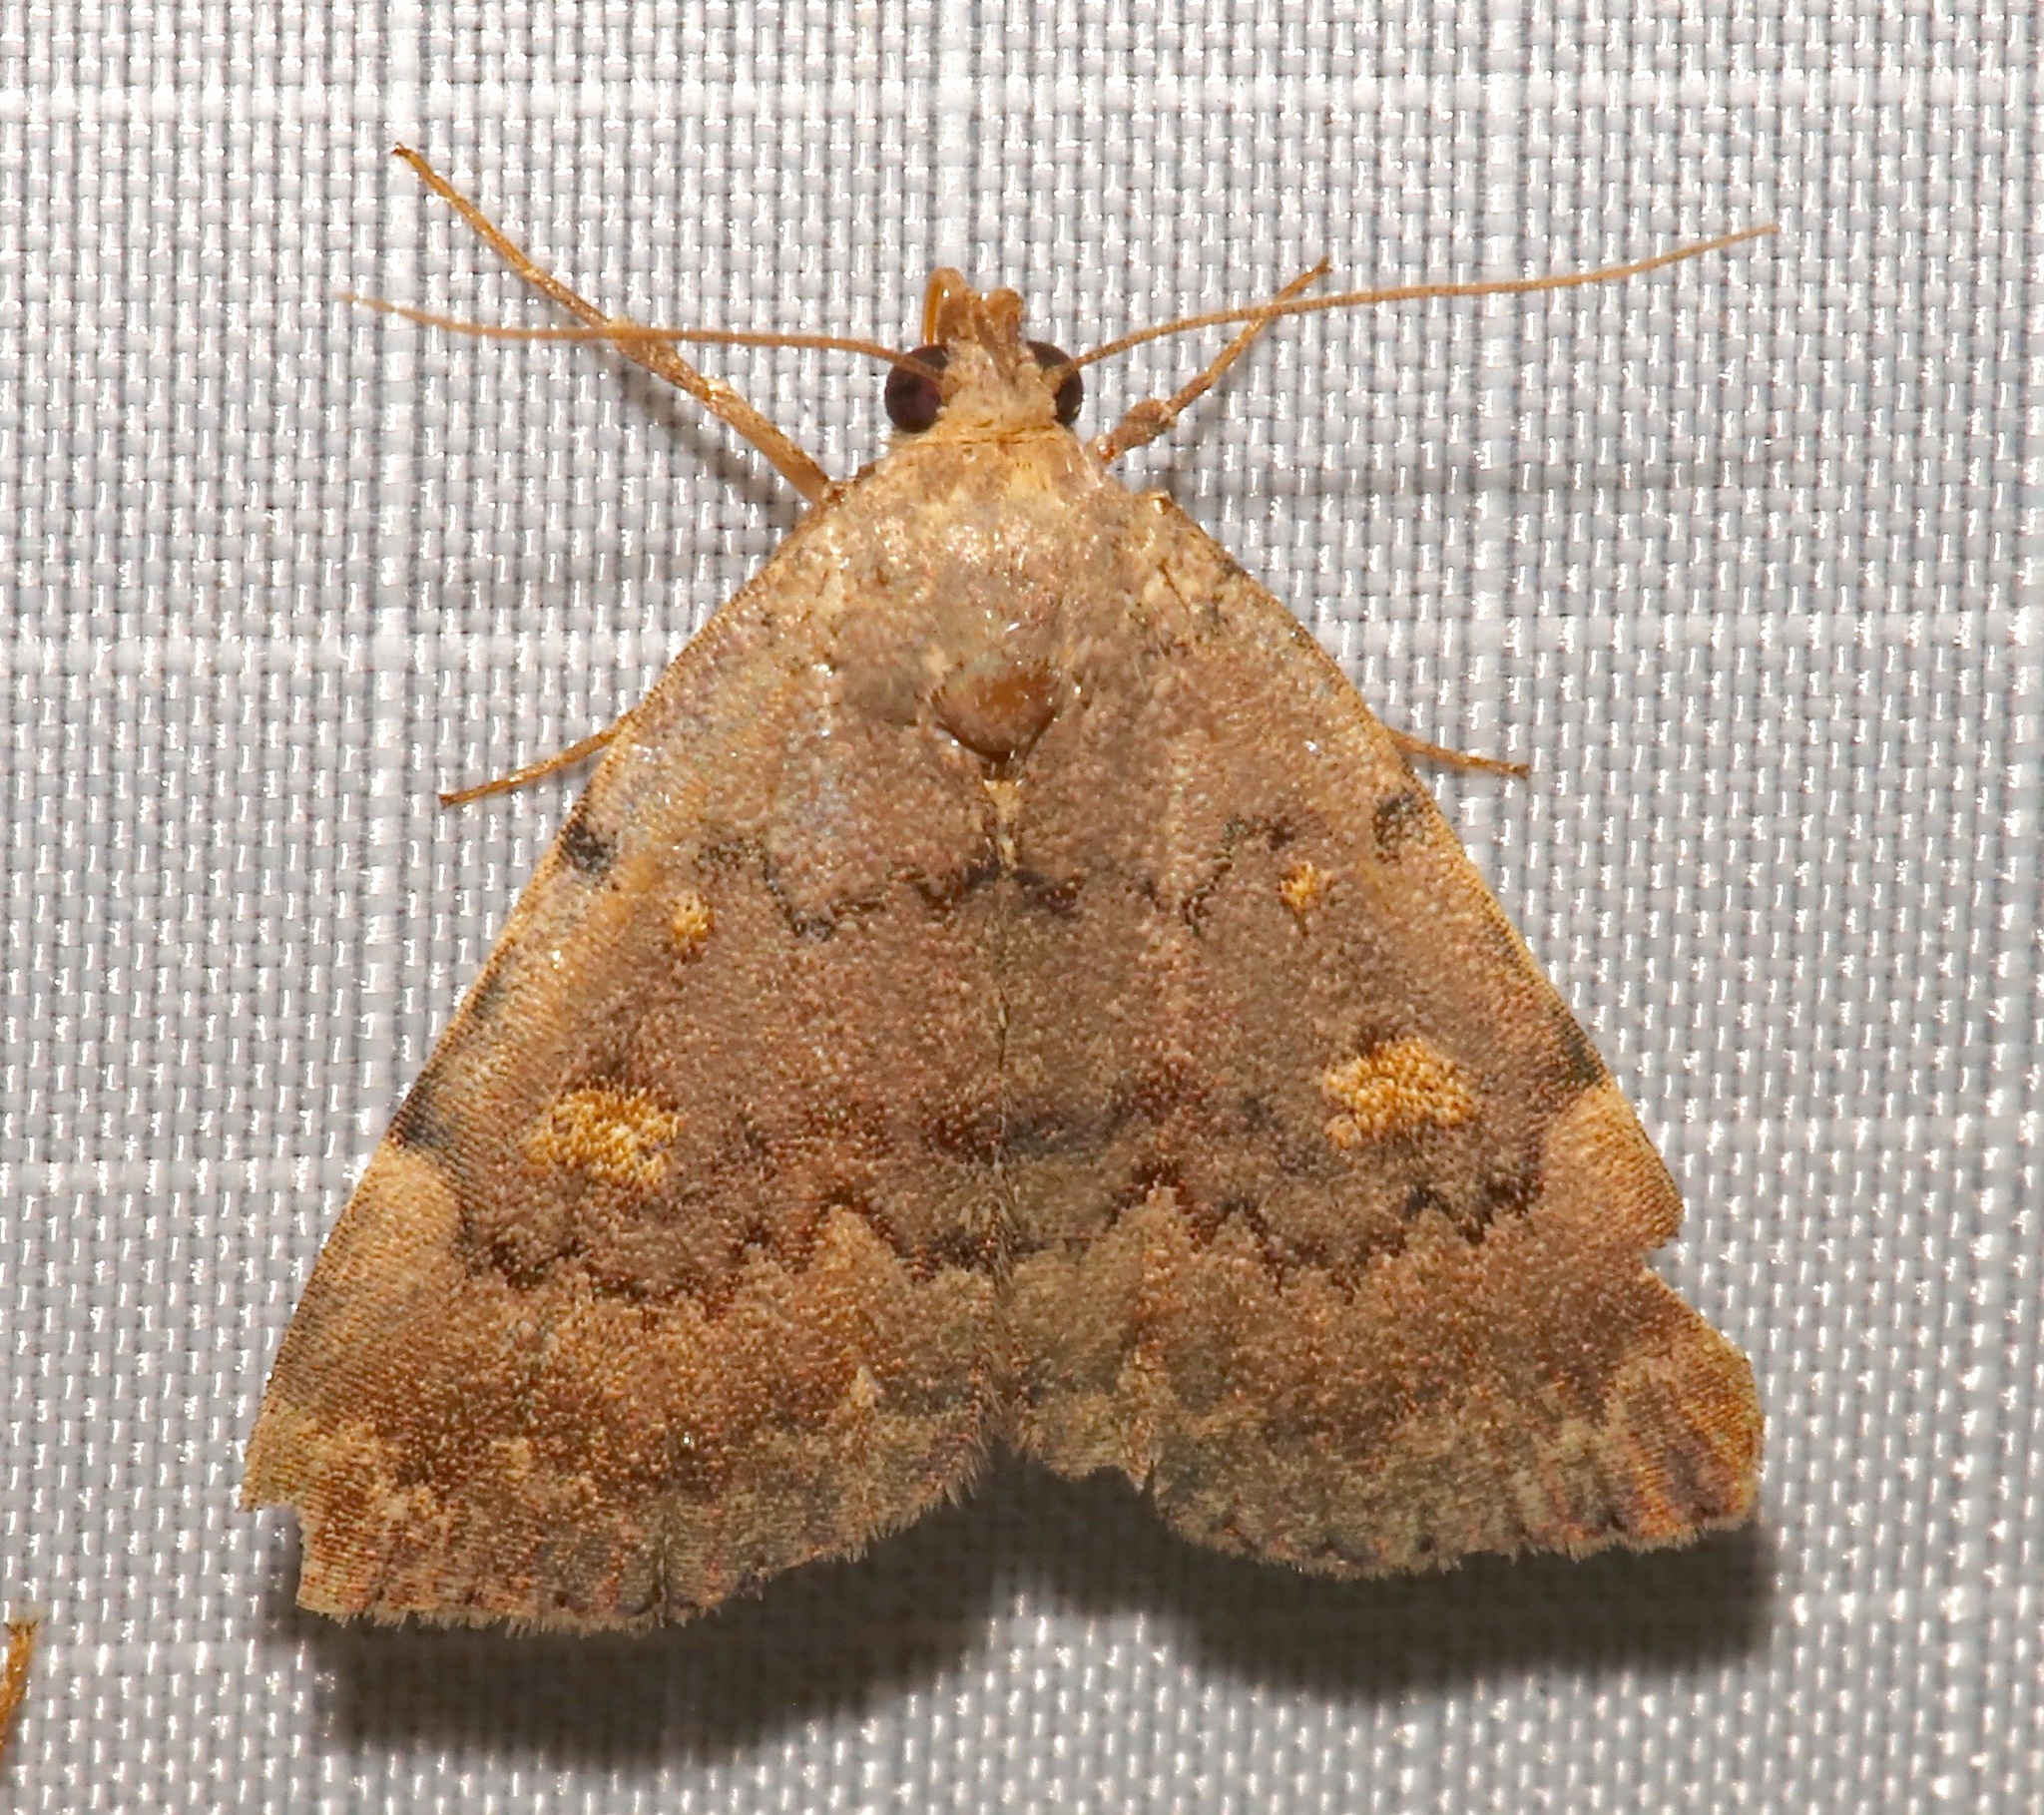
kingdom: Animalia
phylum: Arthropoda
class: Insecta
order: Lepidoptera
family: Erebidae
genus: Idia
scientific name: Idia aemula
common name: Common idia moth
